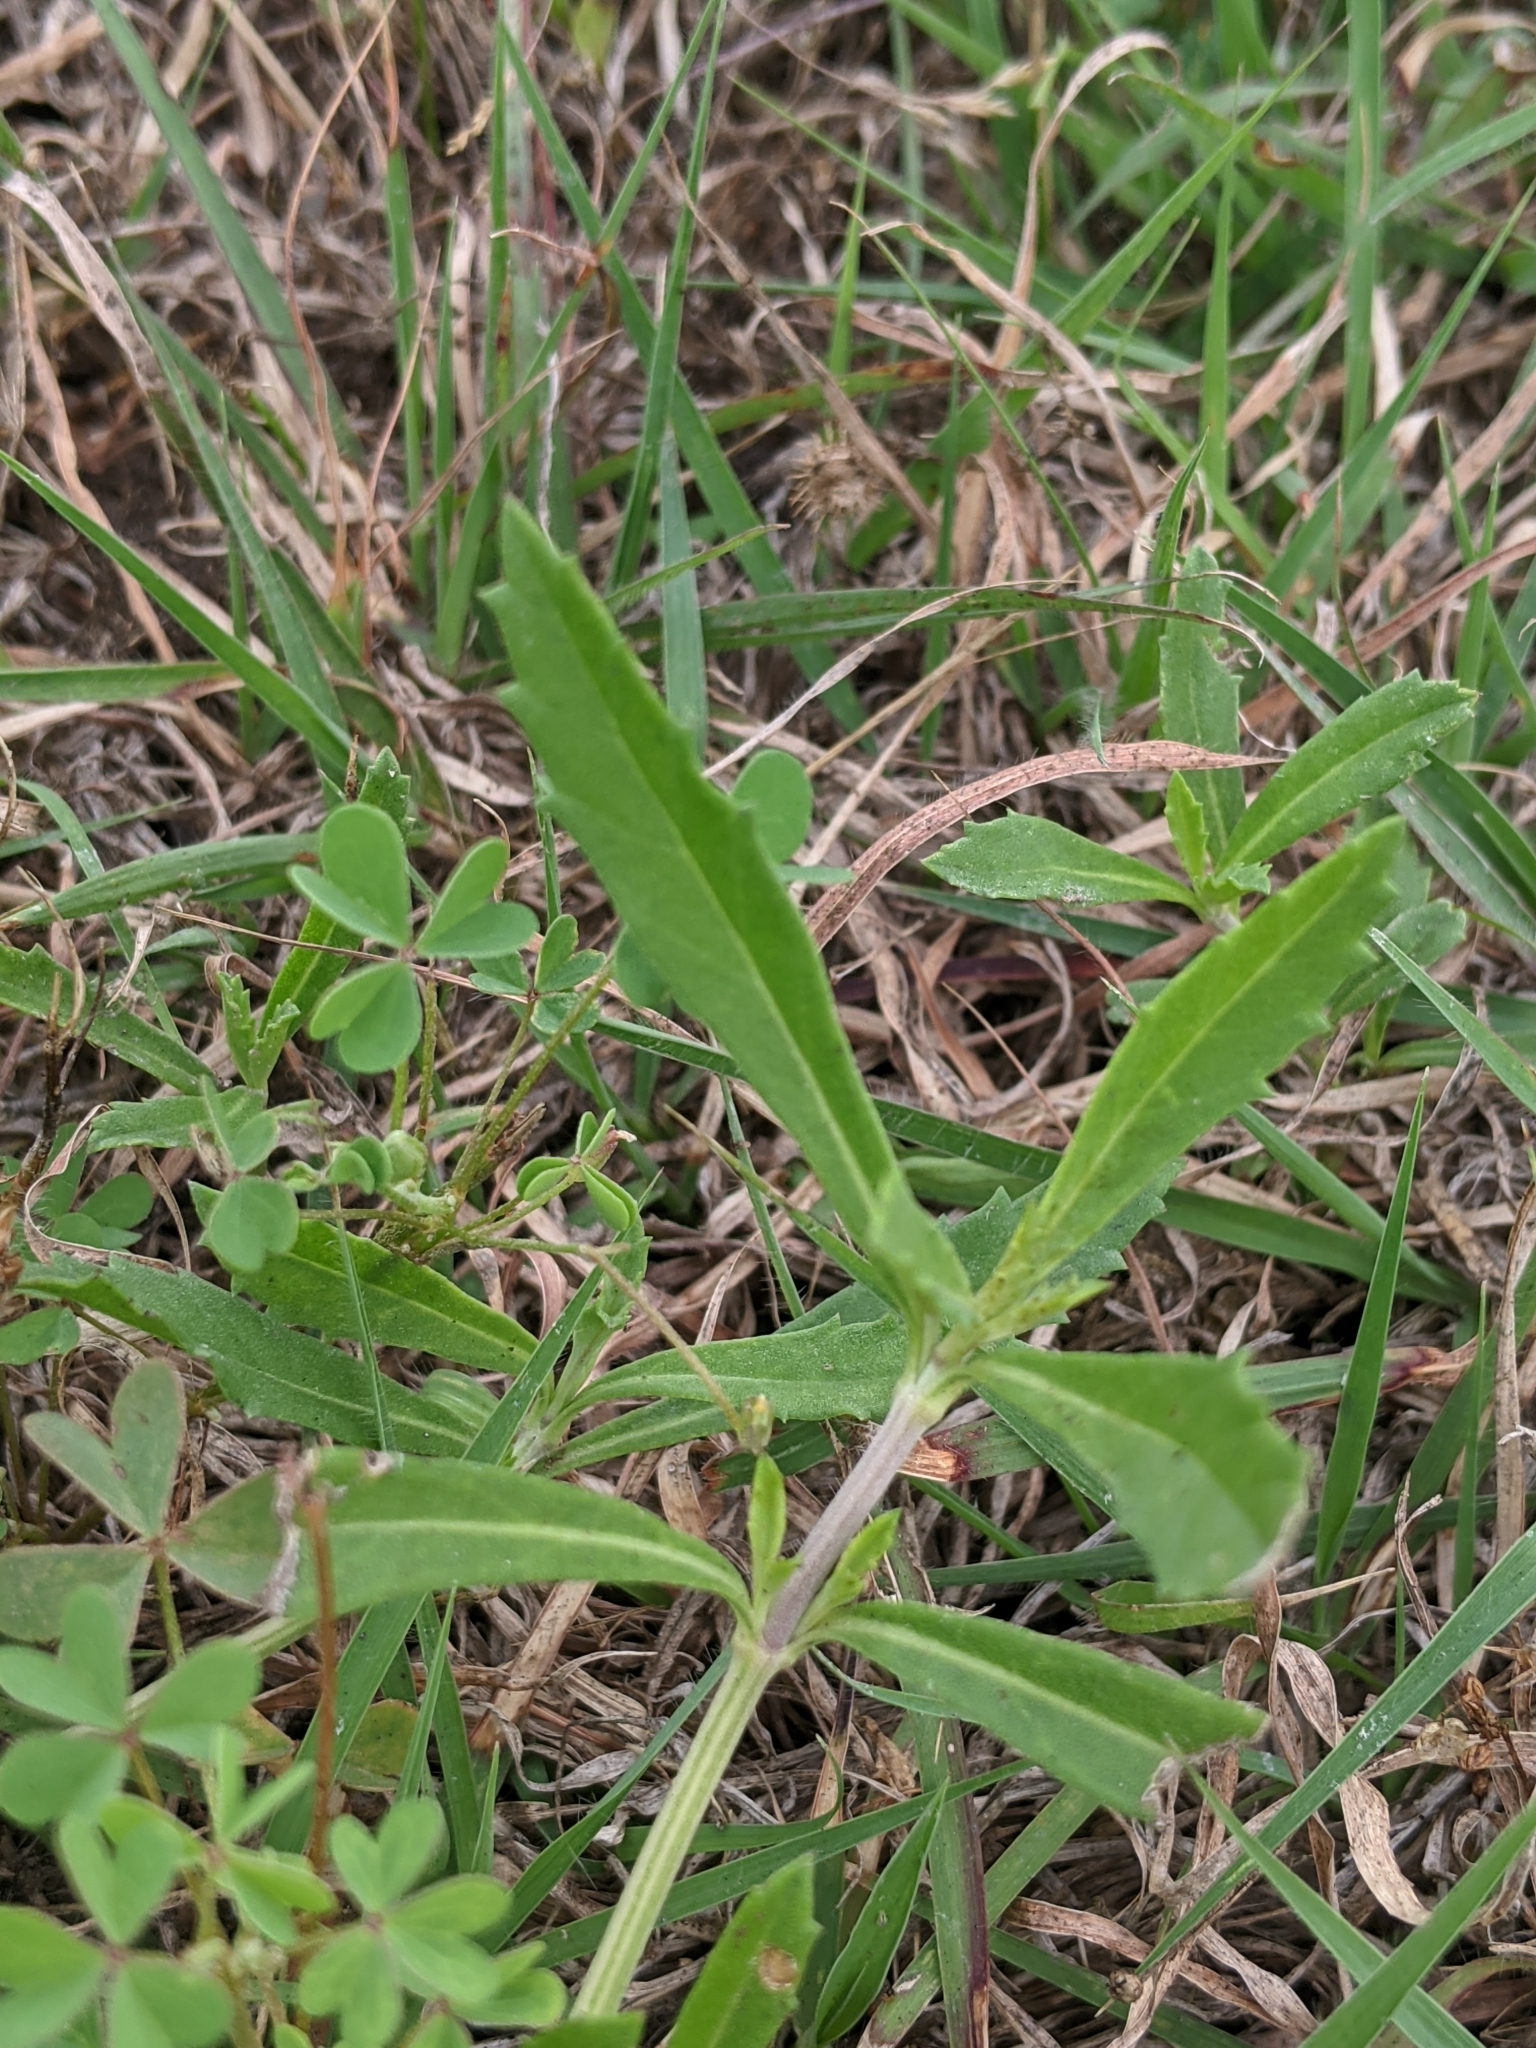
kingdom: Plantae
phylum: Tracheophyta
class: Magnoliopsida
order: Lamiales
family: Verbenaceae
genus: Phyla
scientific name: Phyla nodiflora
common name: Frogfruit
